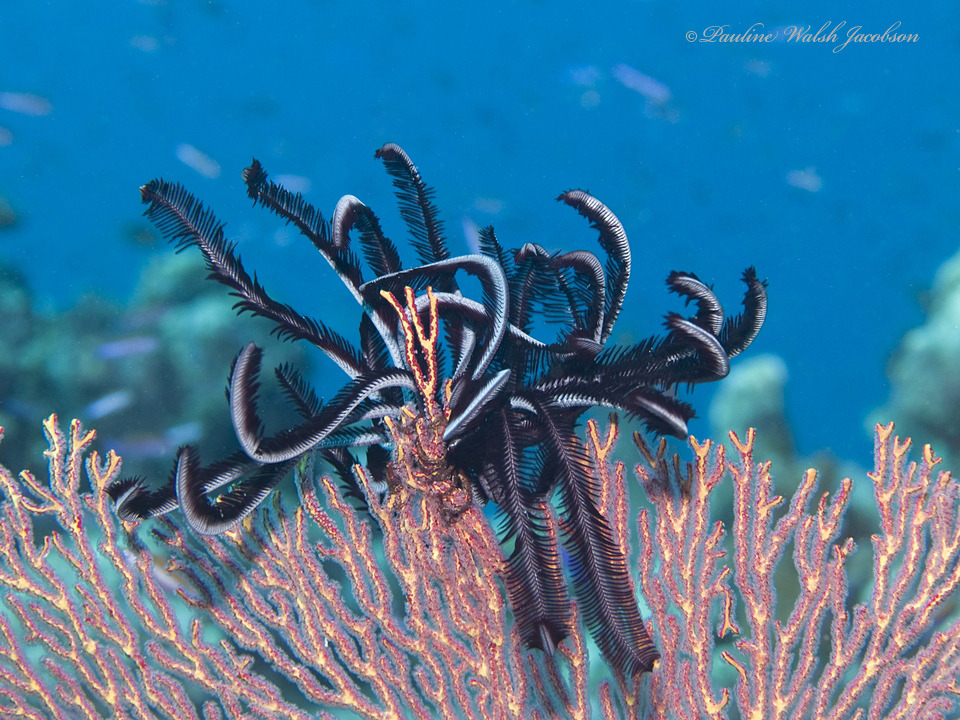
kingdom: Animalia
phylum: Echinodermata
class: Crinoidea
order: Comatulida
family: Colobometridae
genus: Cenometra
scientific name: Cenometra bella
